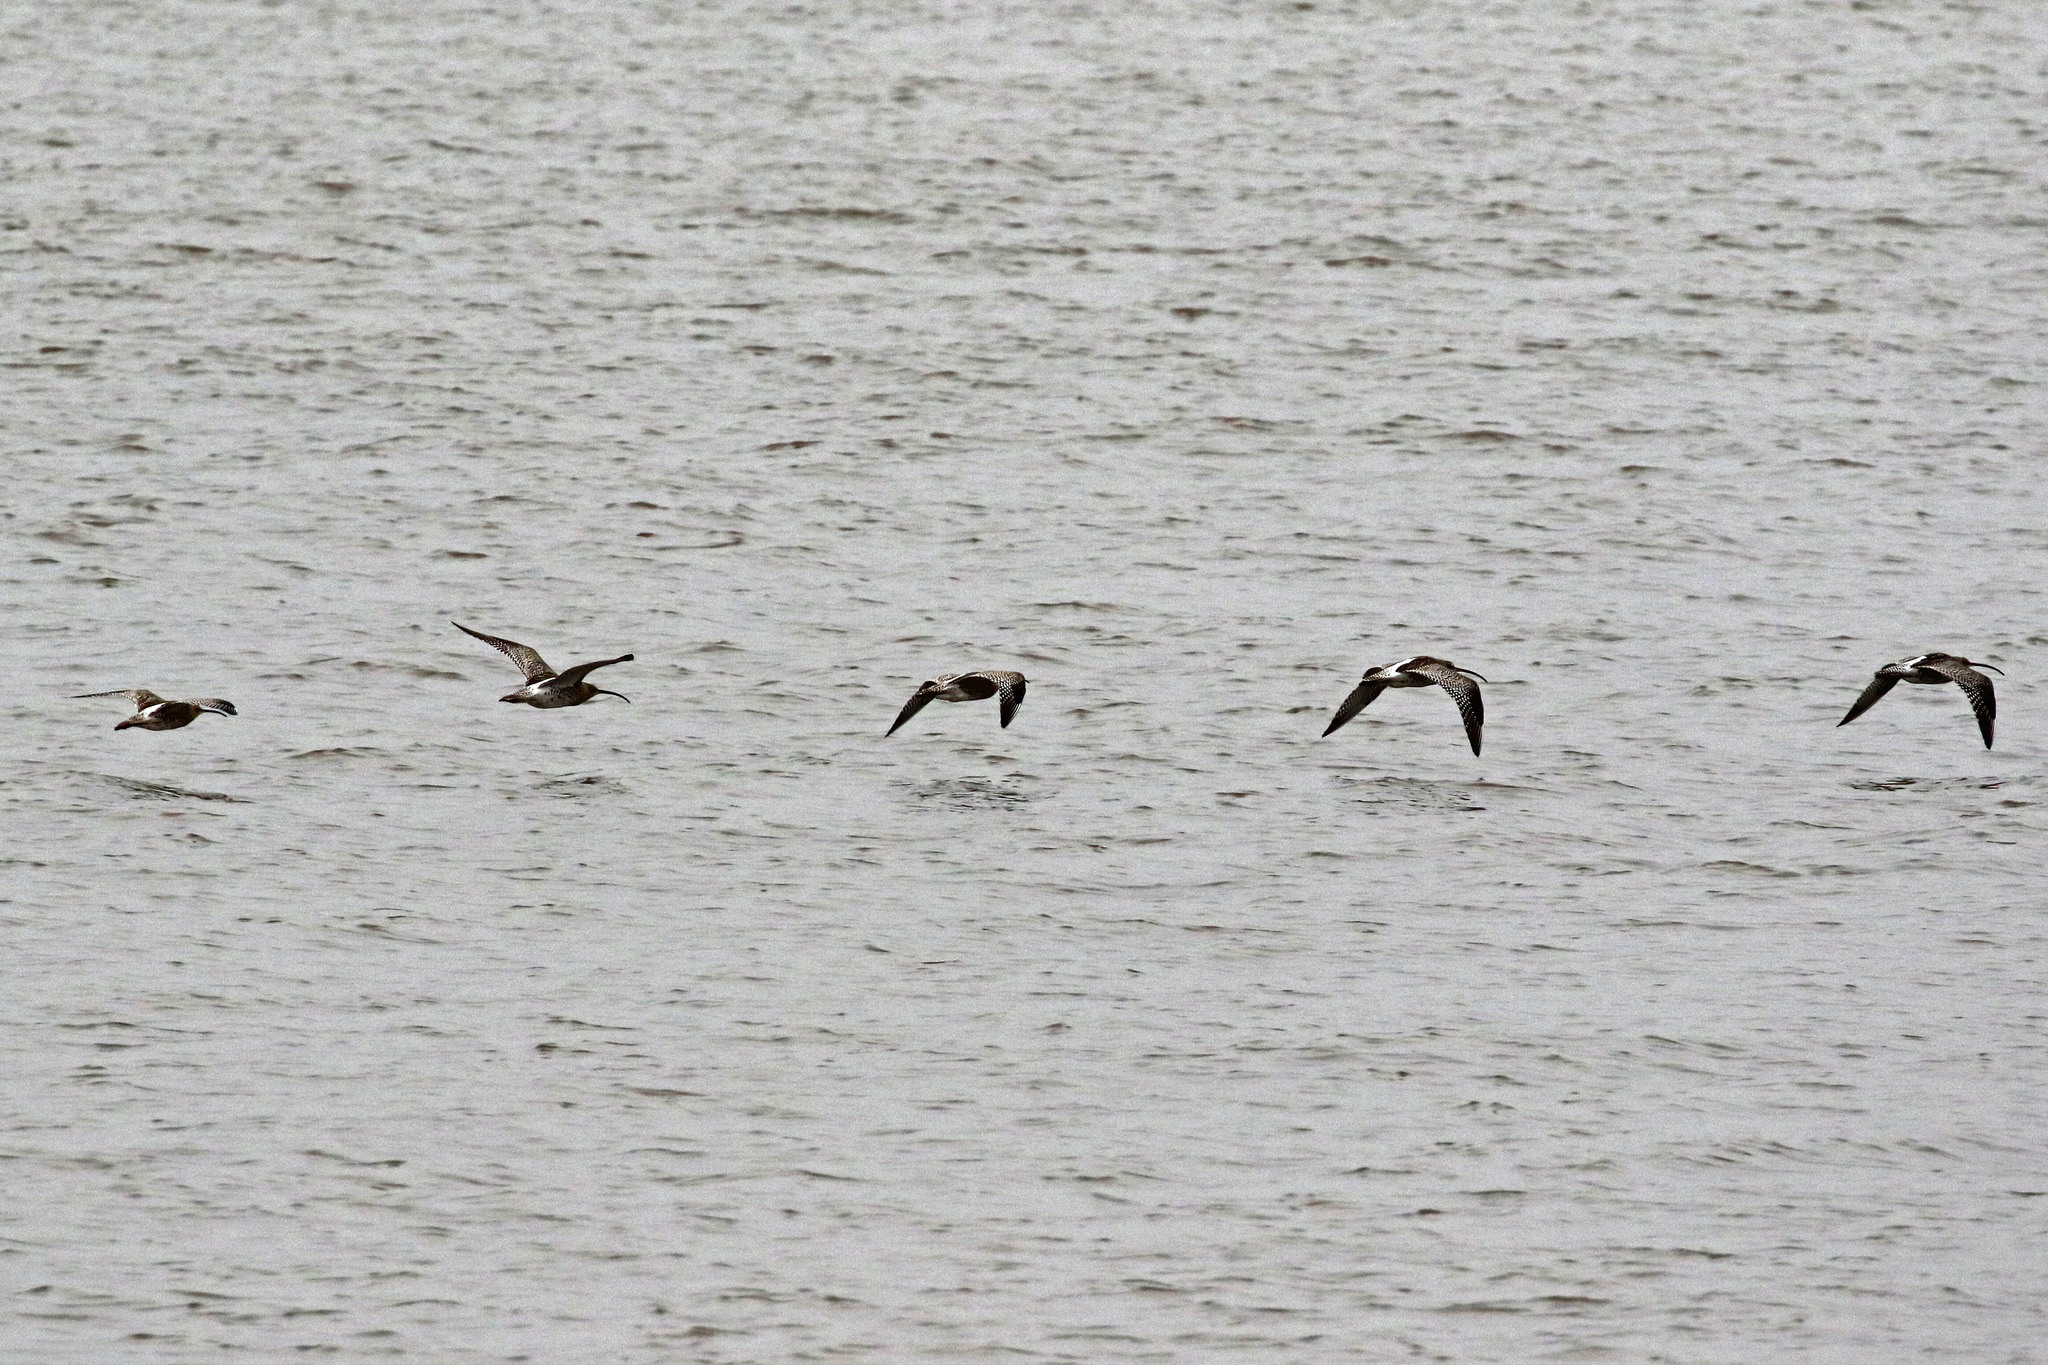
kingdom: Animalia
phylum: Chordata
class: Aves
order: Charadriiformes
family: Scolopacidae
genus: Numenius
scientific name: Numenius arquata
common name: Eurasian curlew
